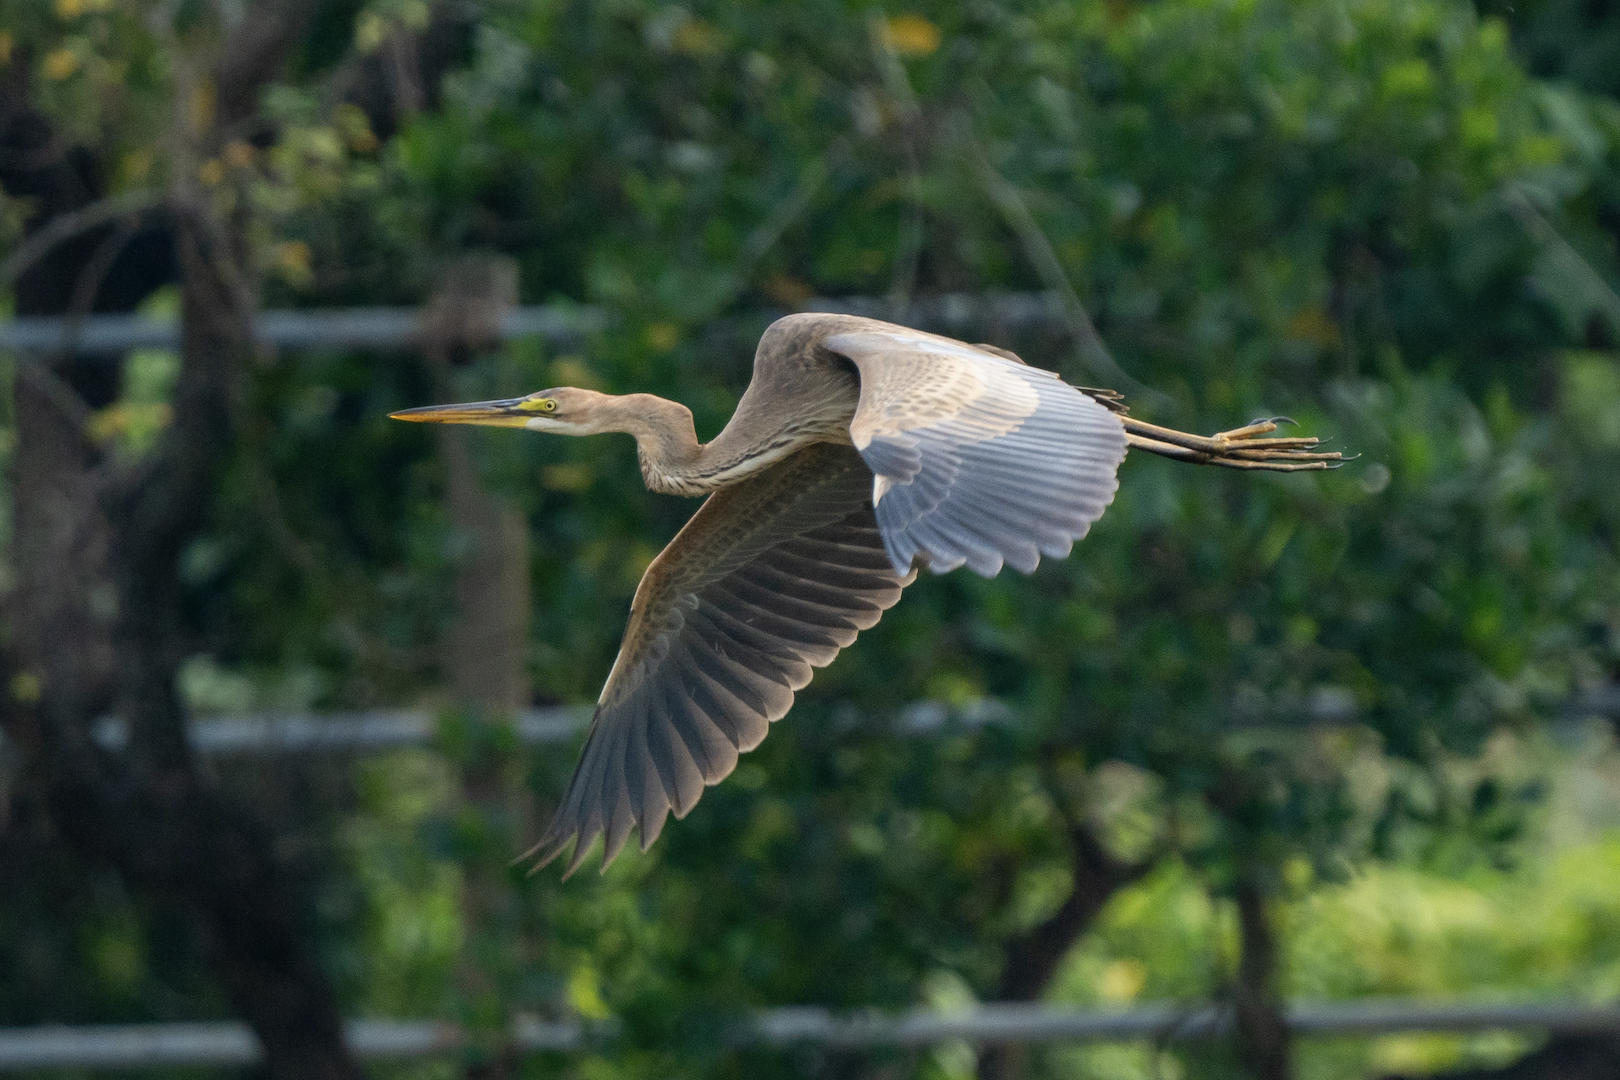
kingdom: Animalia
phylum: Chordata
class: Aves
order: Pelecaniformes
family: Ardeidae
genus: Ardea
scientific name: Ardea purpurea
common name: Purple heron
